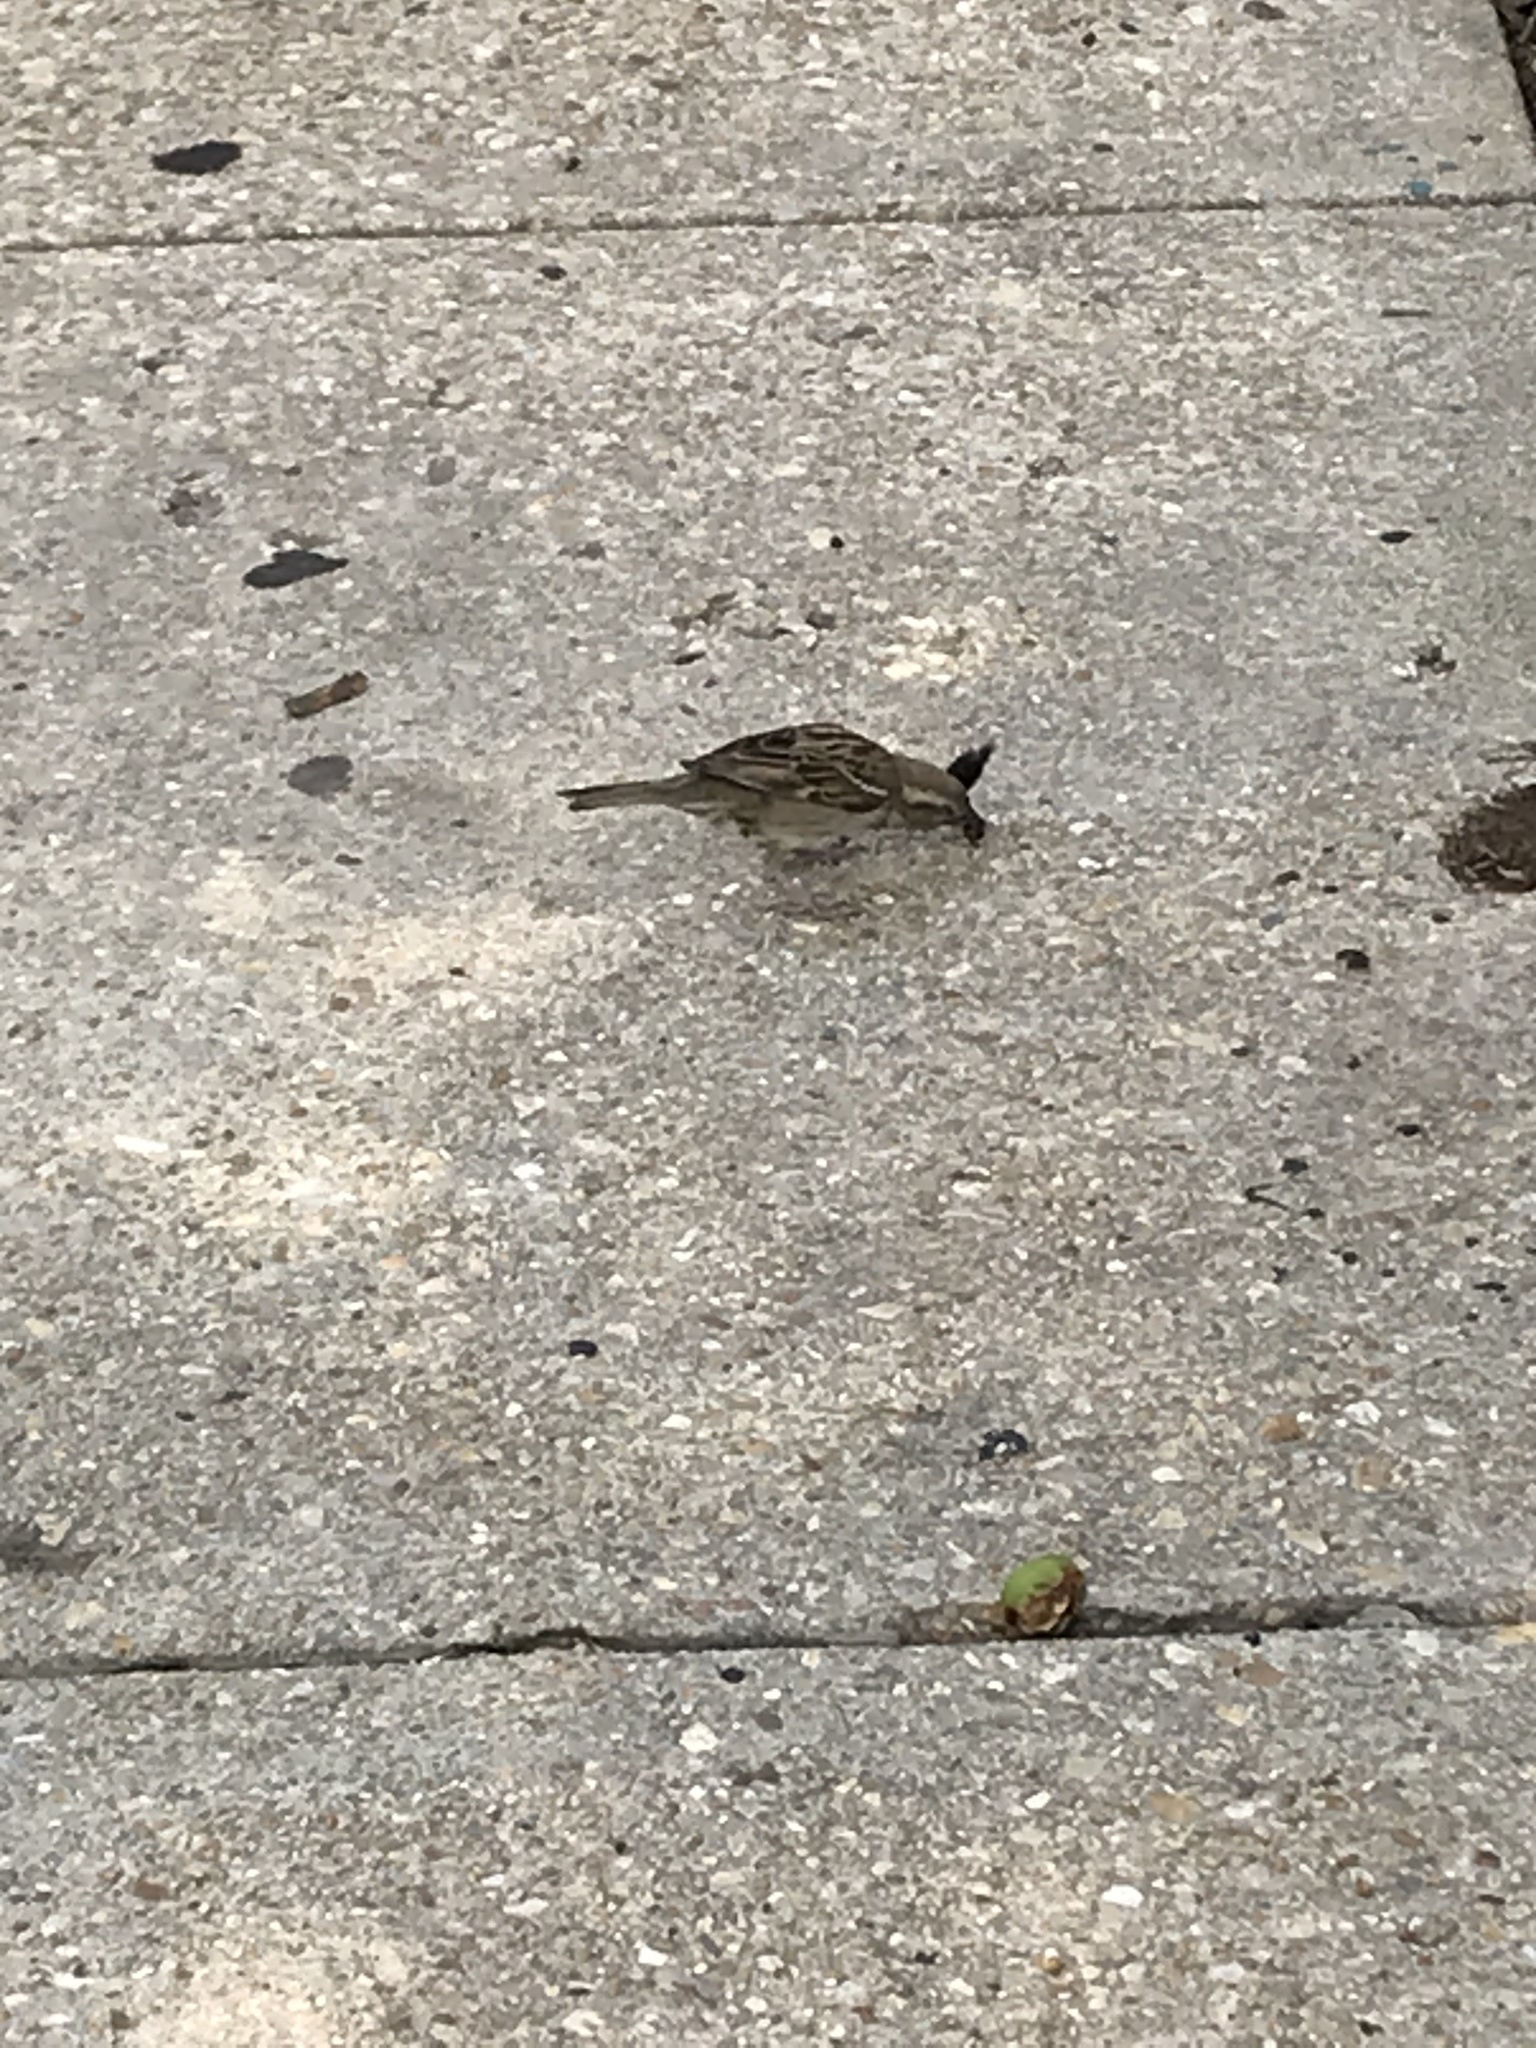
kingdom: Animalia
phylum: Chordata
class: Aves
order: Passeriformes
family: Passeridae
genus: Passer
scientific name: Passer domesticus
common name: House sparrow
